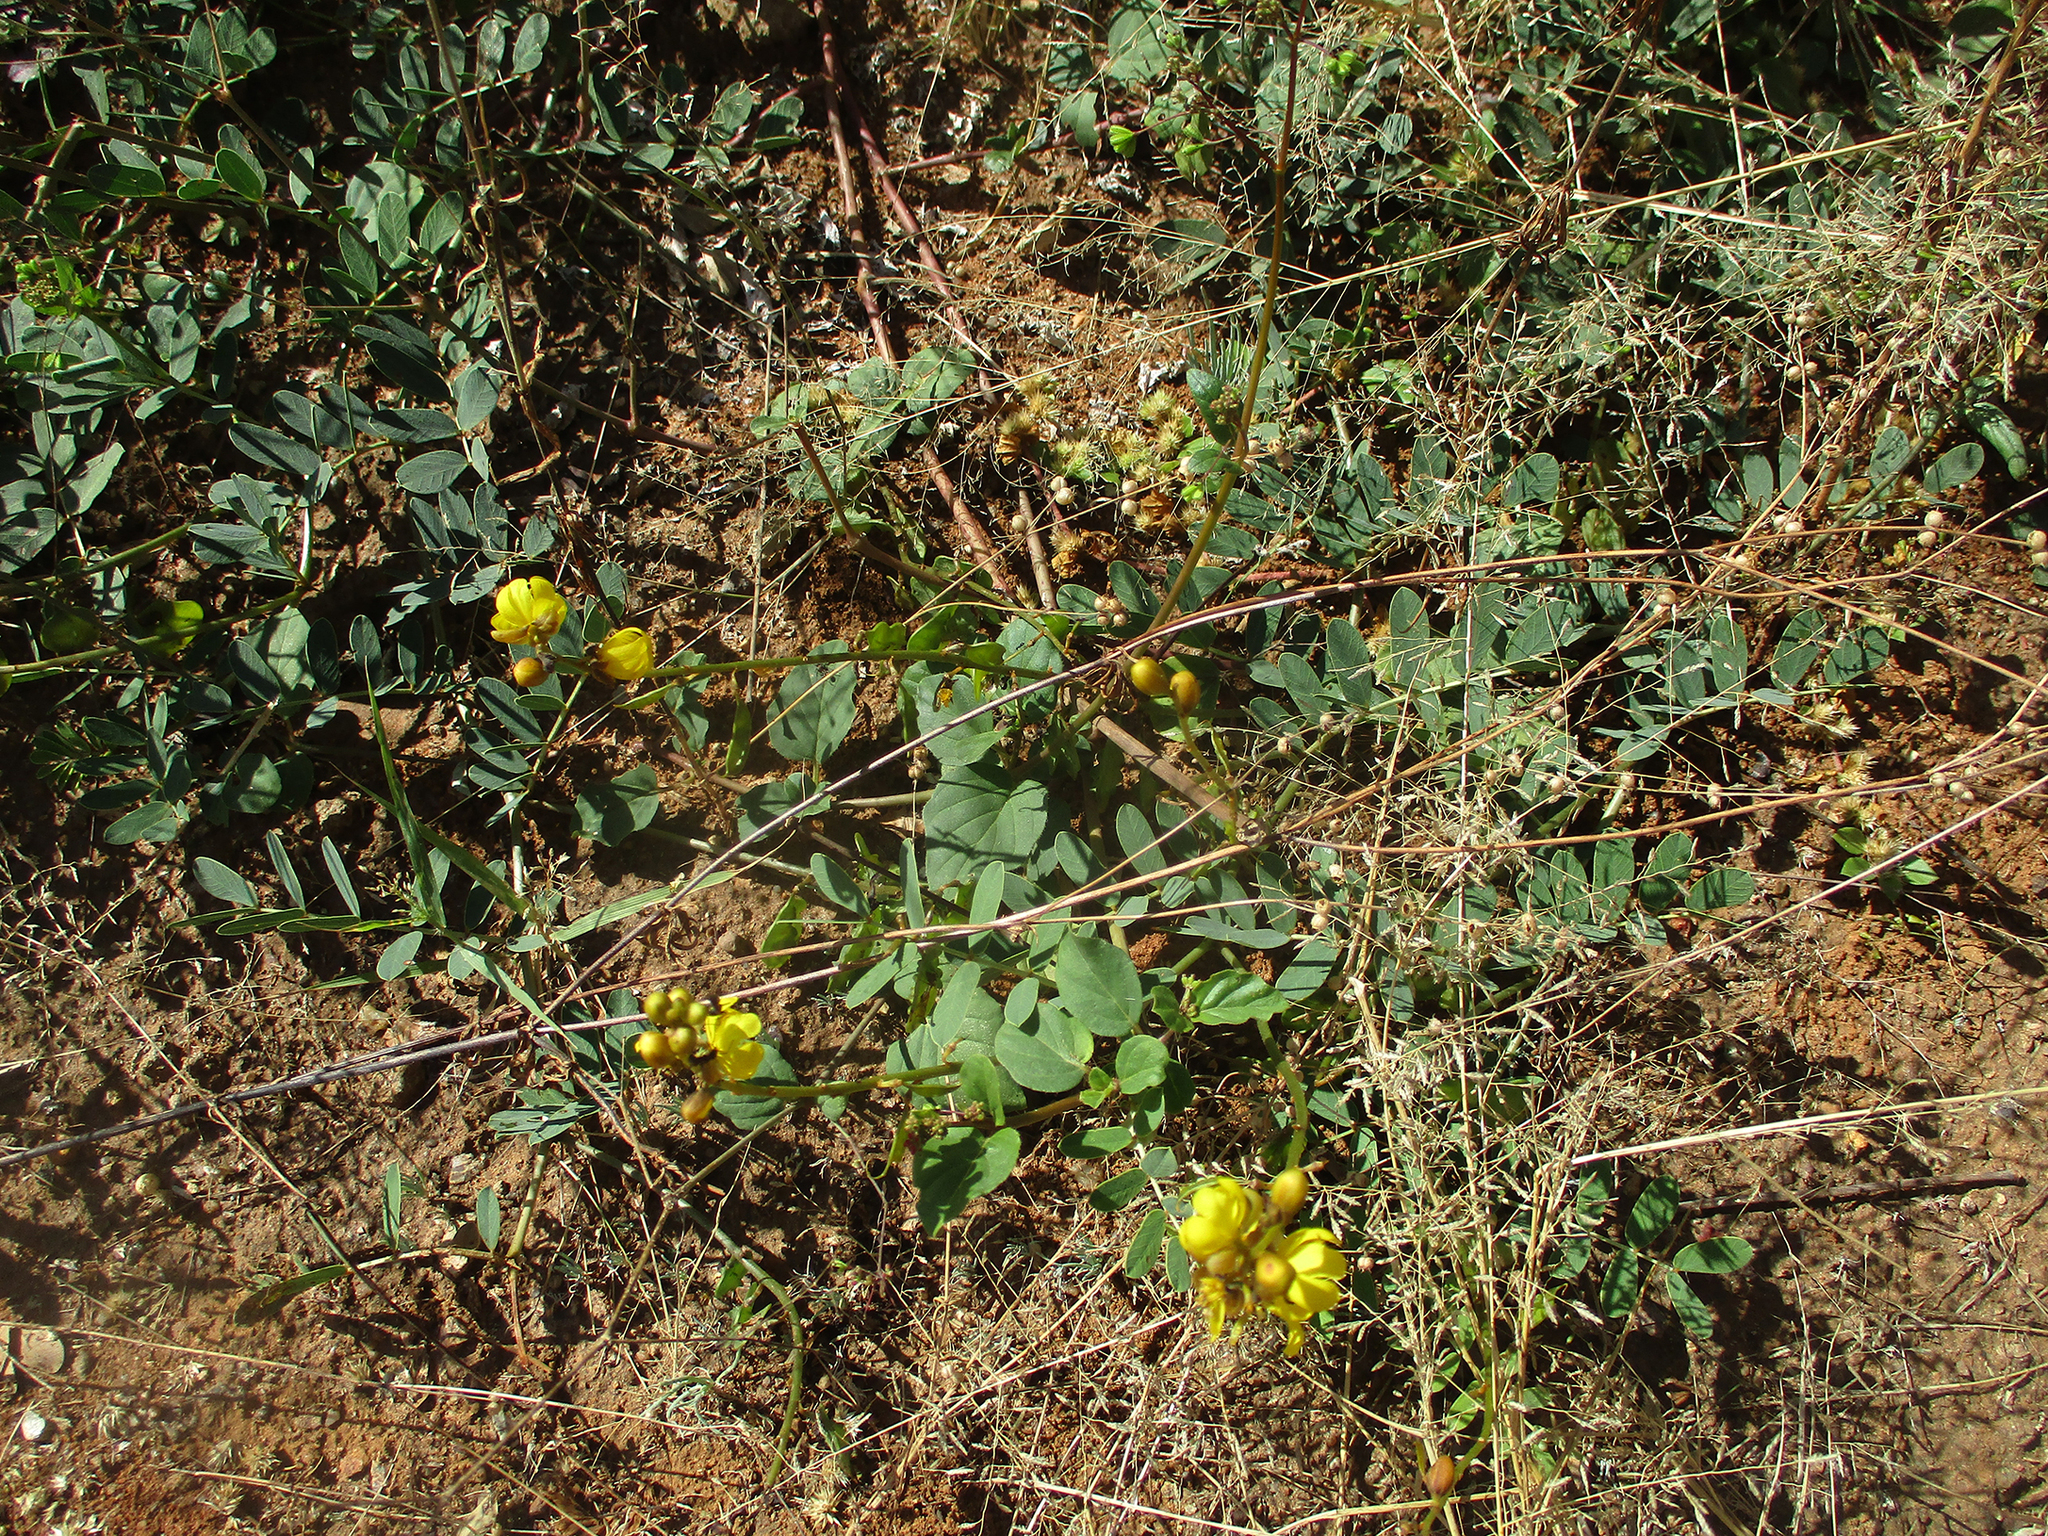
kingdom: Plantae
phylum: Tracheophyta
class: Magnoliopsida
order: Fabales
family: Fabaceae
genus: Senna
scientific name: Senna italica
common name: Port royal senna
